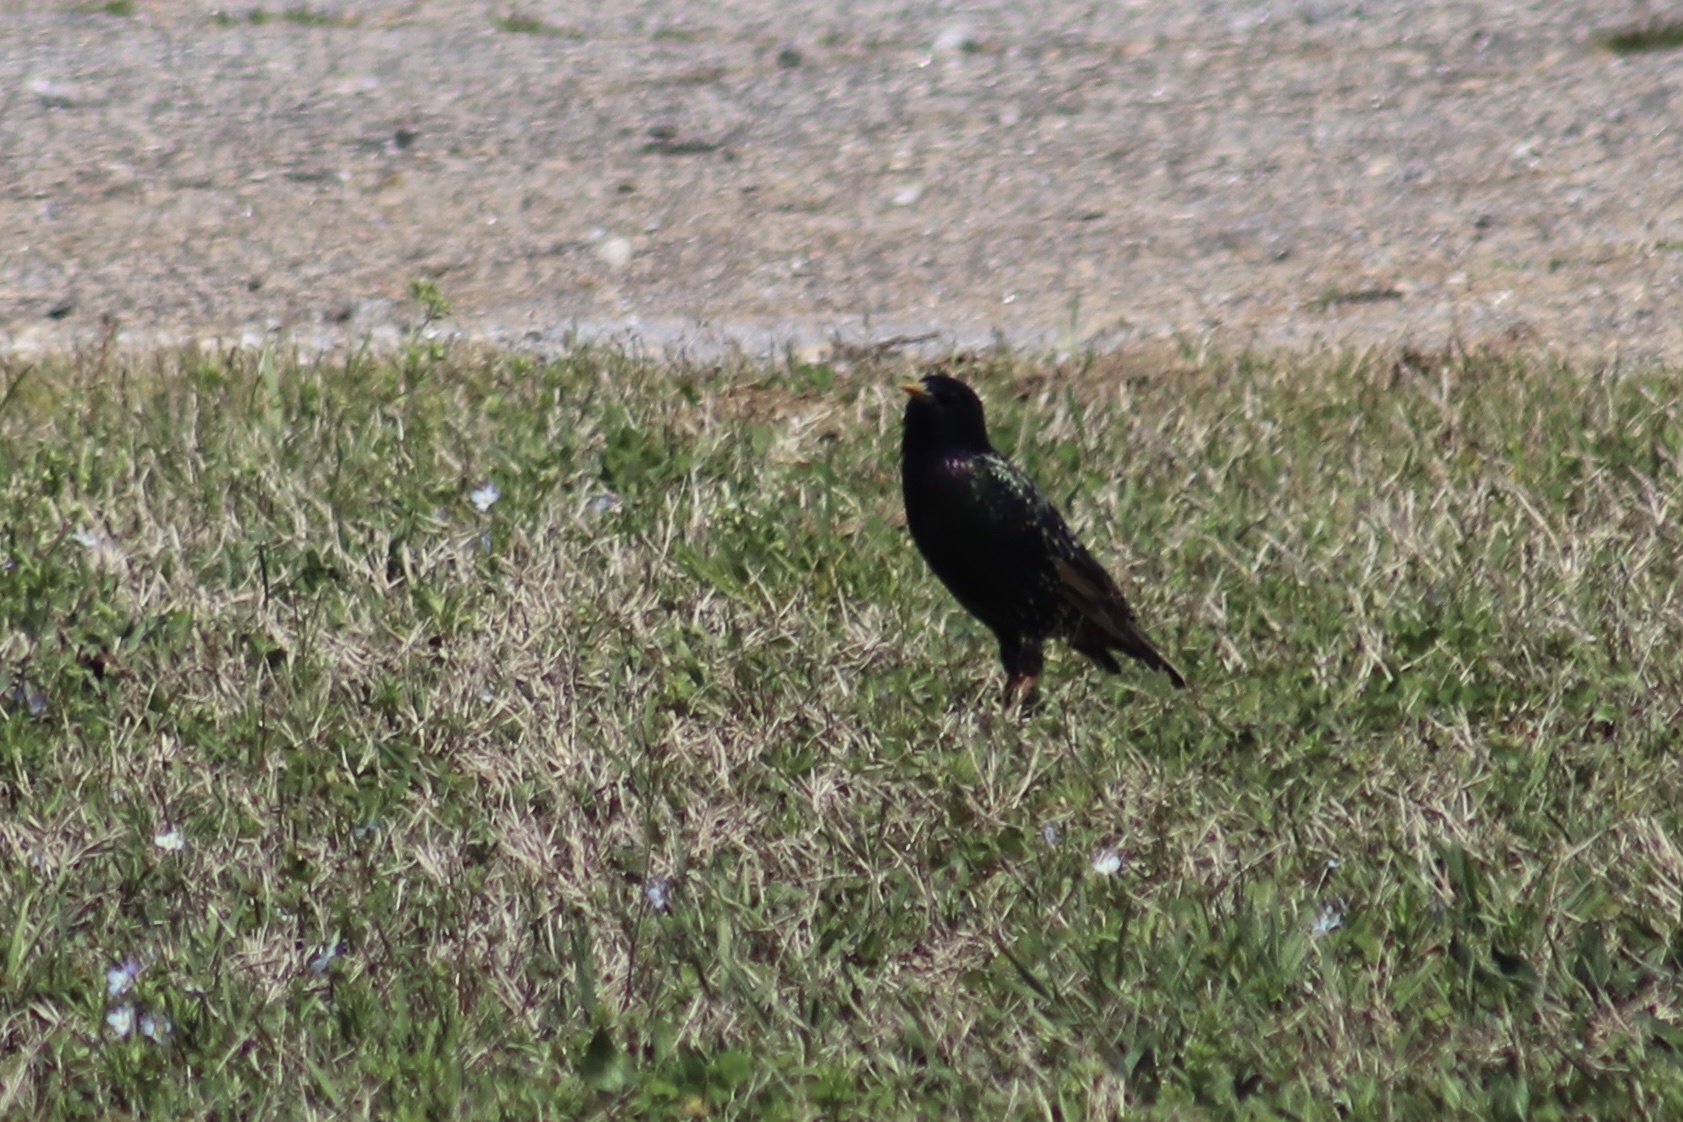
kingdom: Animalia
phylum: Chordata
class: Aves
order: Passeriformes
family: Sturnidae
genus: Sturnus
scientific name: Sturnus vulgaris
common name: Common starling
